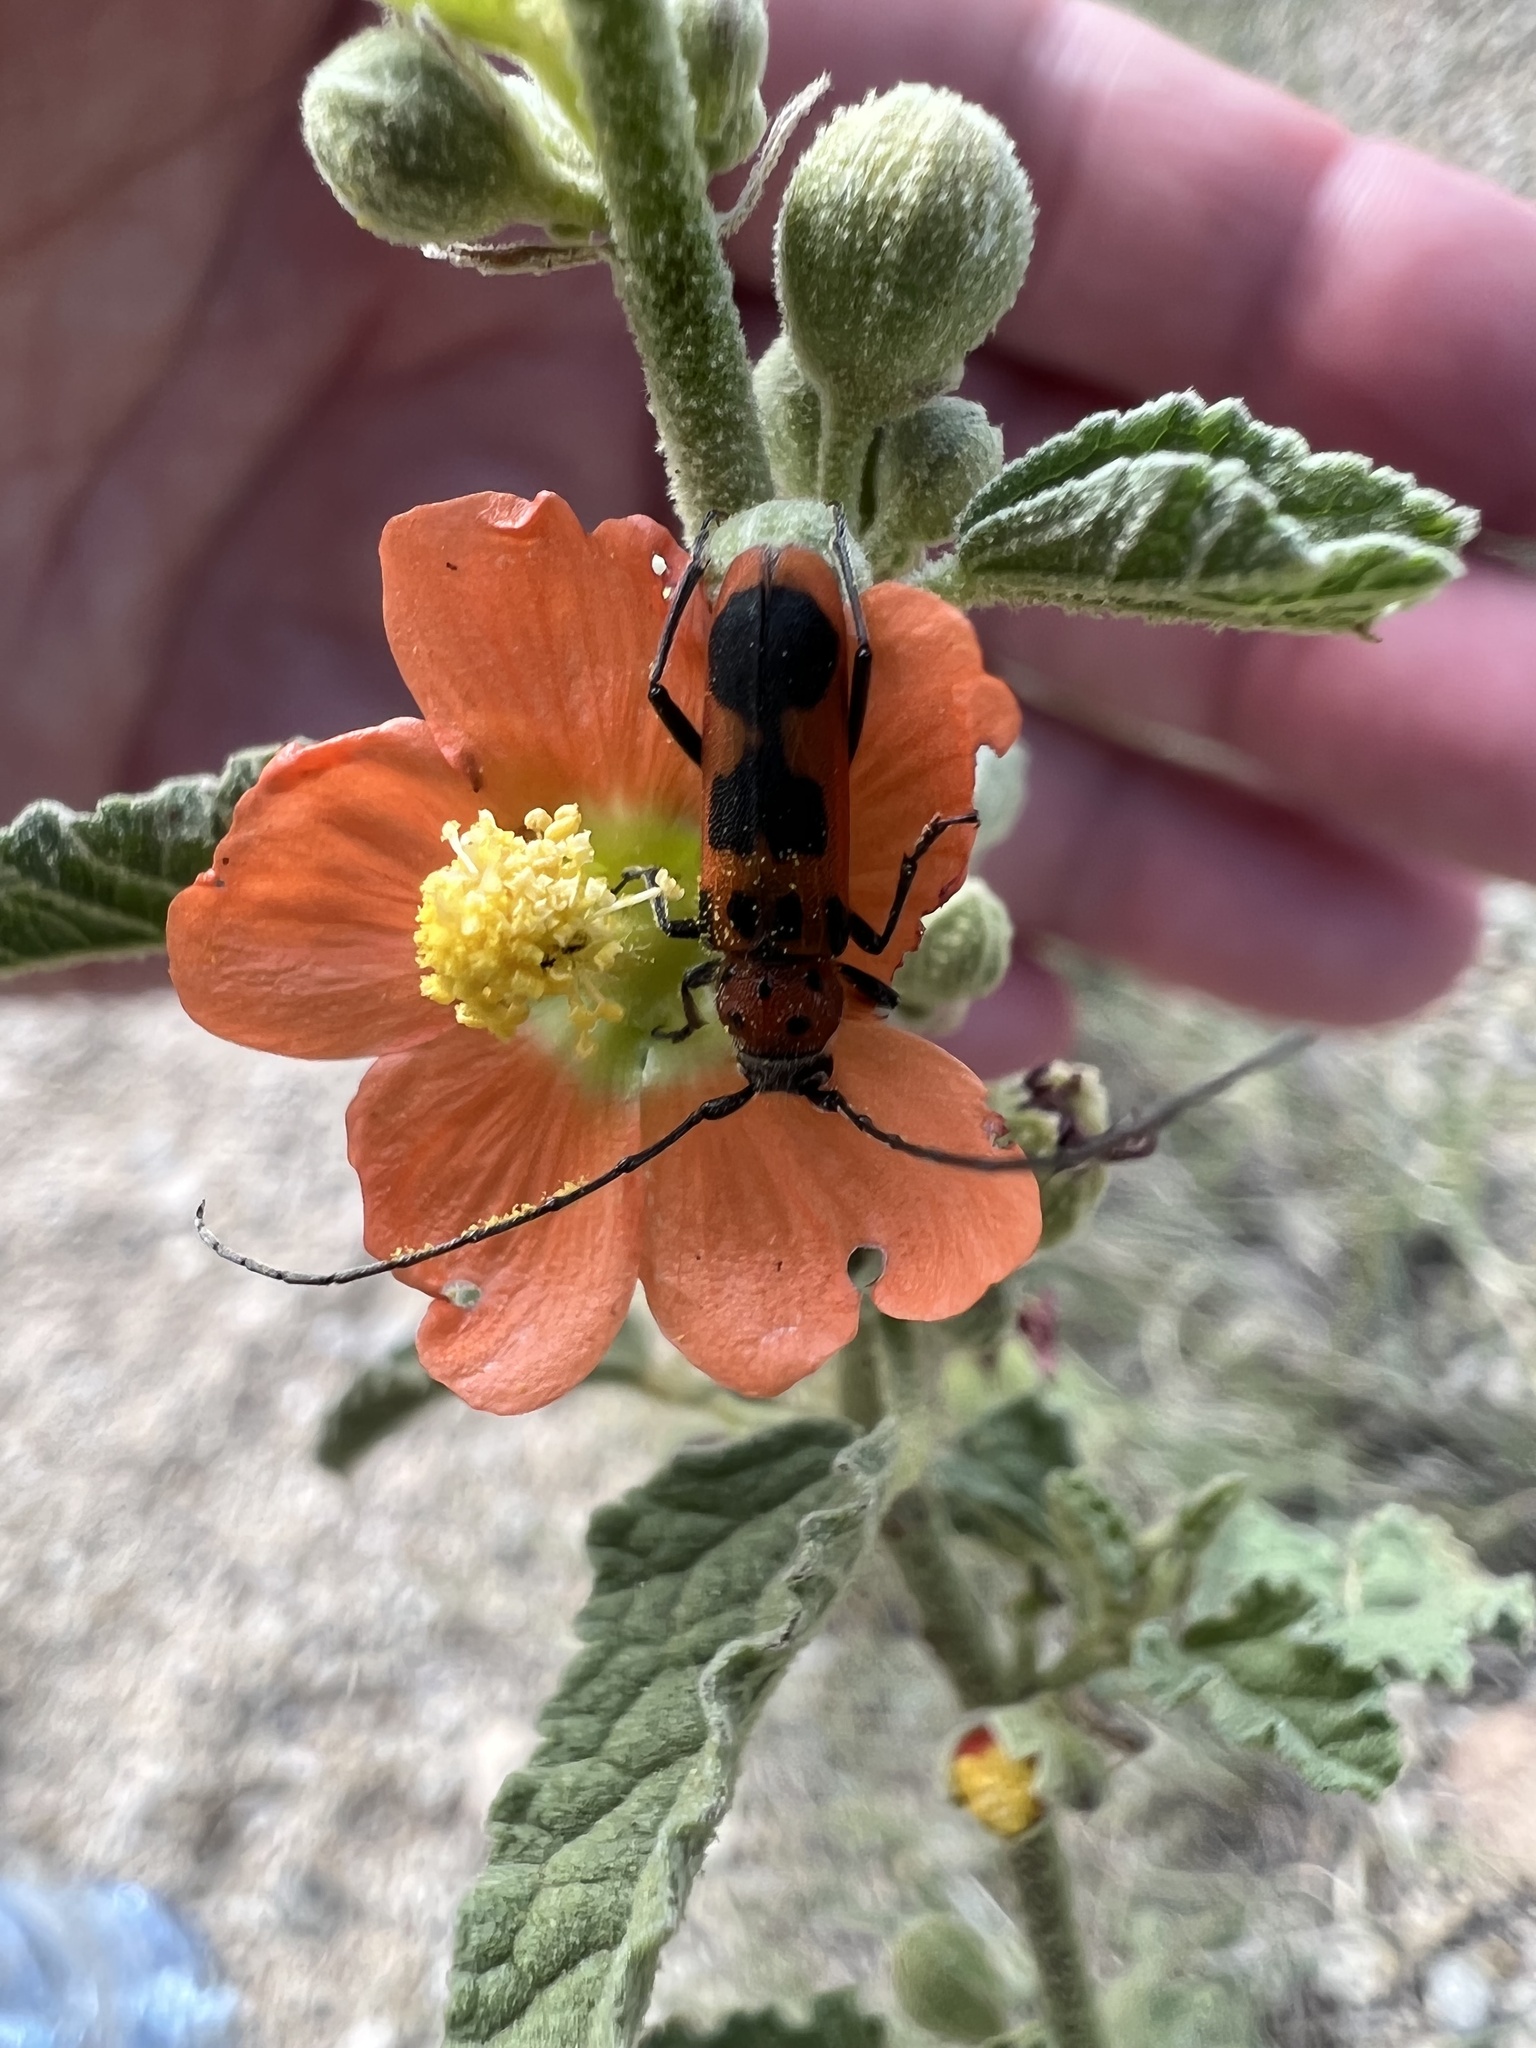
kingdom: Animalia
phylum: Arthropoda
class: Insecta
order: Coleoptera
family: Cerambycidae
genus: Tylosis
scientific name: Tylosis maculatus
